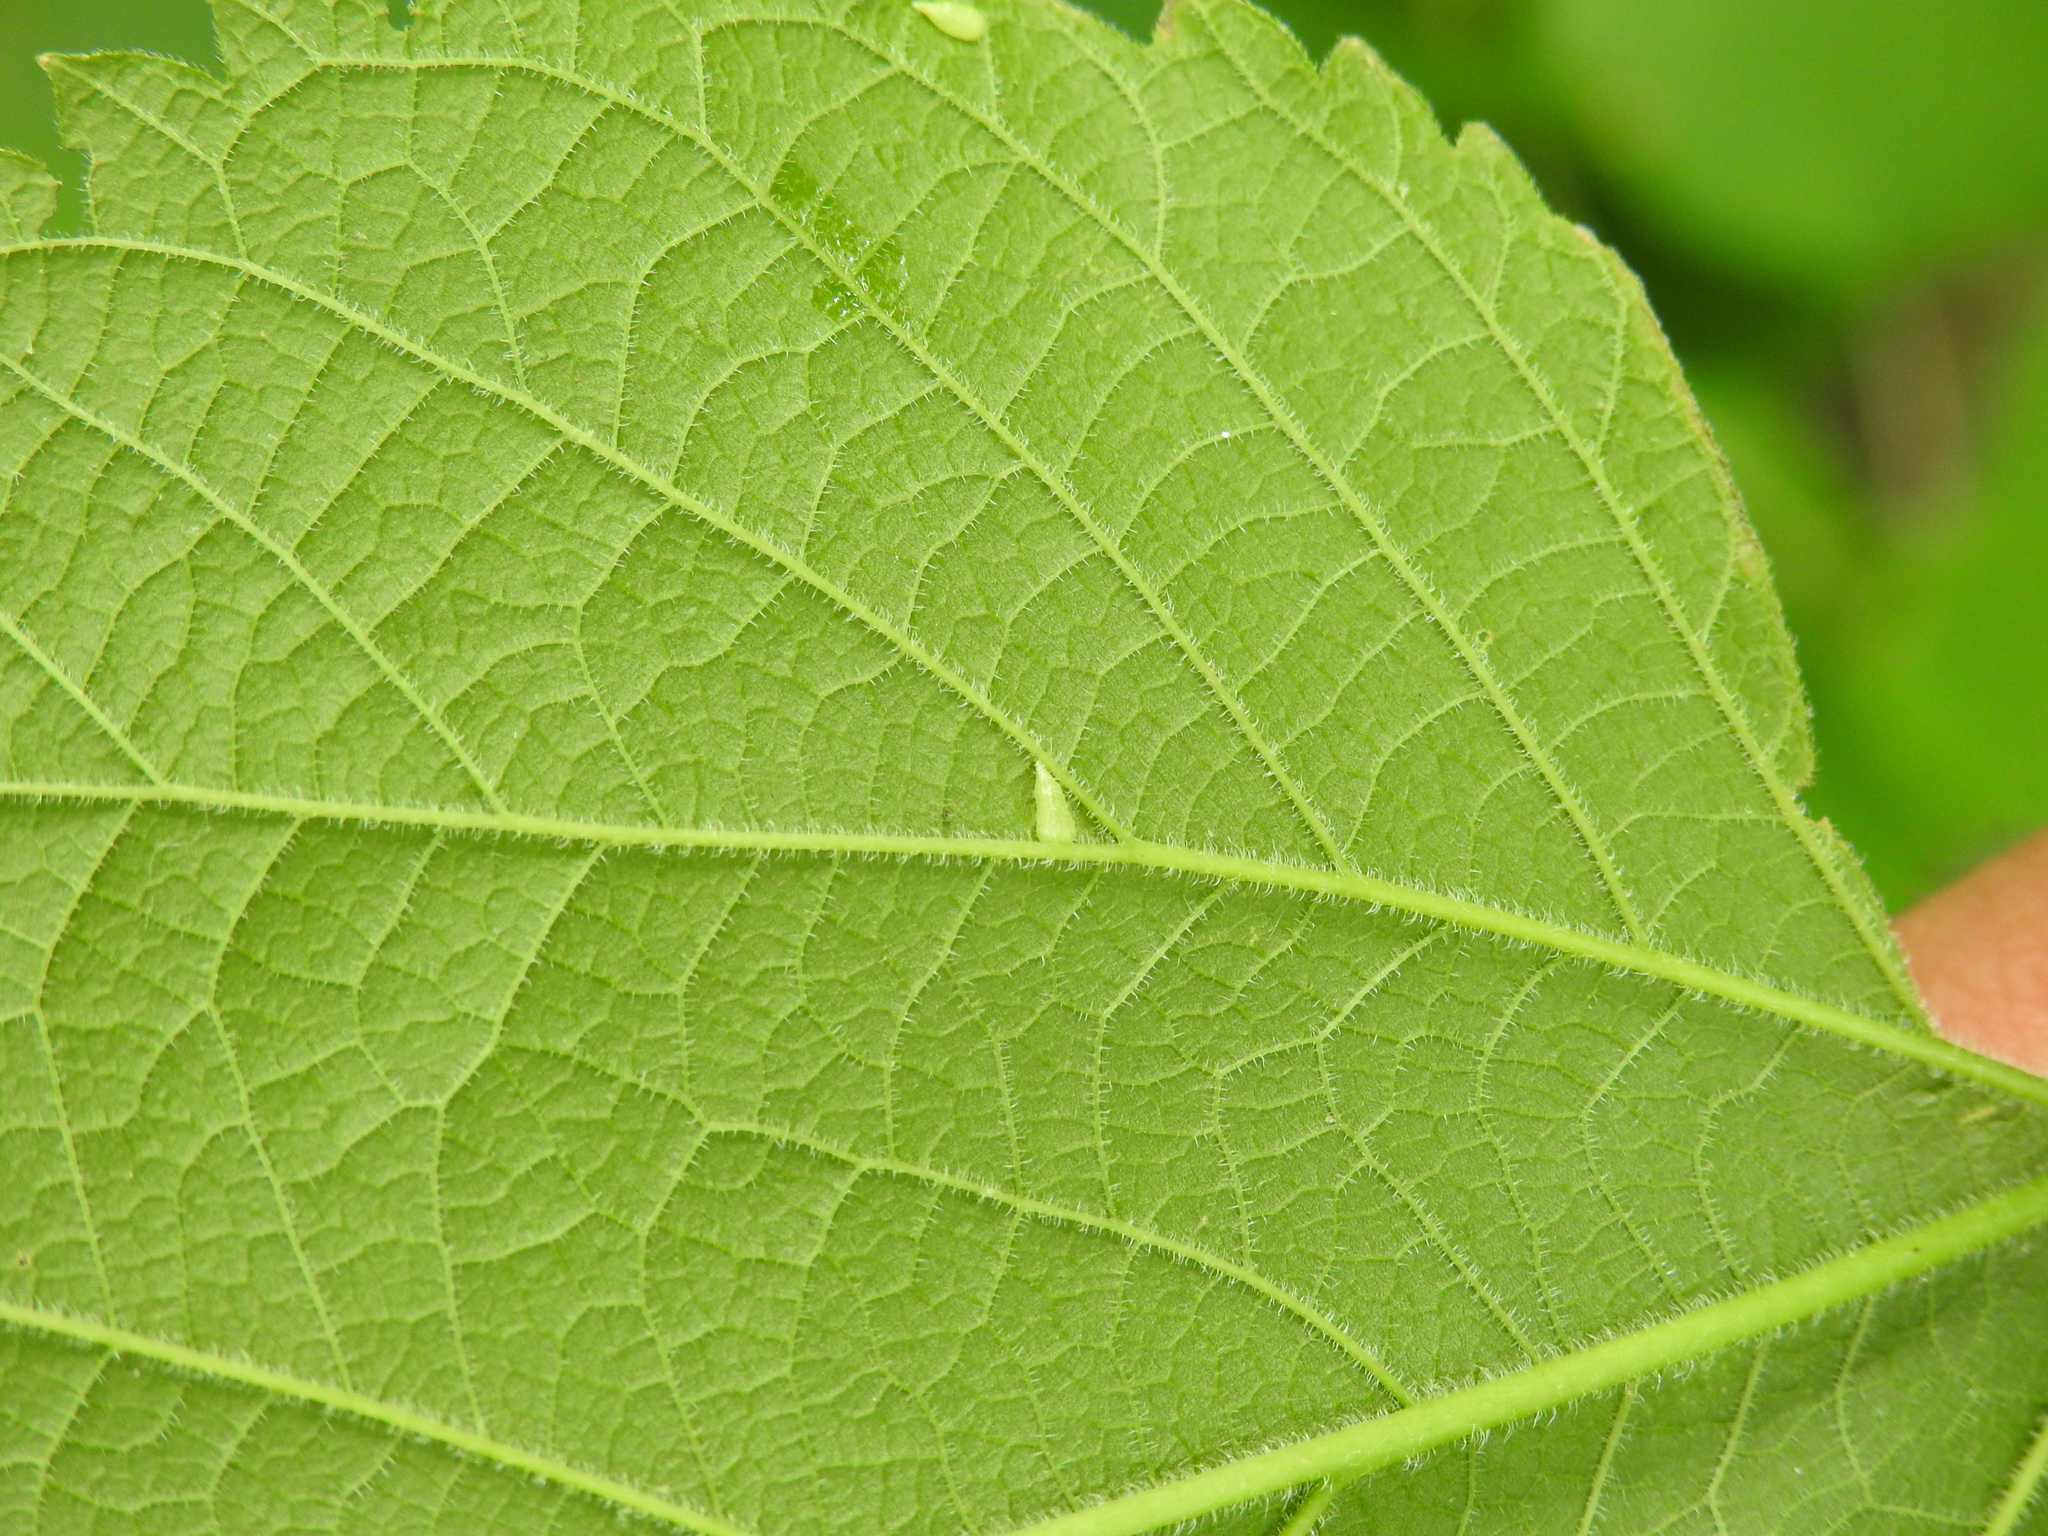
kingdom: Animalia
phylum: Arthropoda
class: Insecta
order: Diptera
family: Cecidomyiidae
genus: Celticecis
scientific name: Celticecis supina
